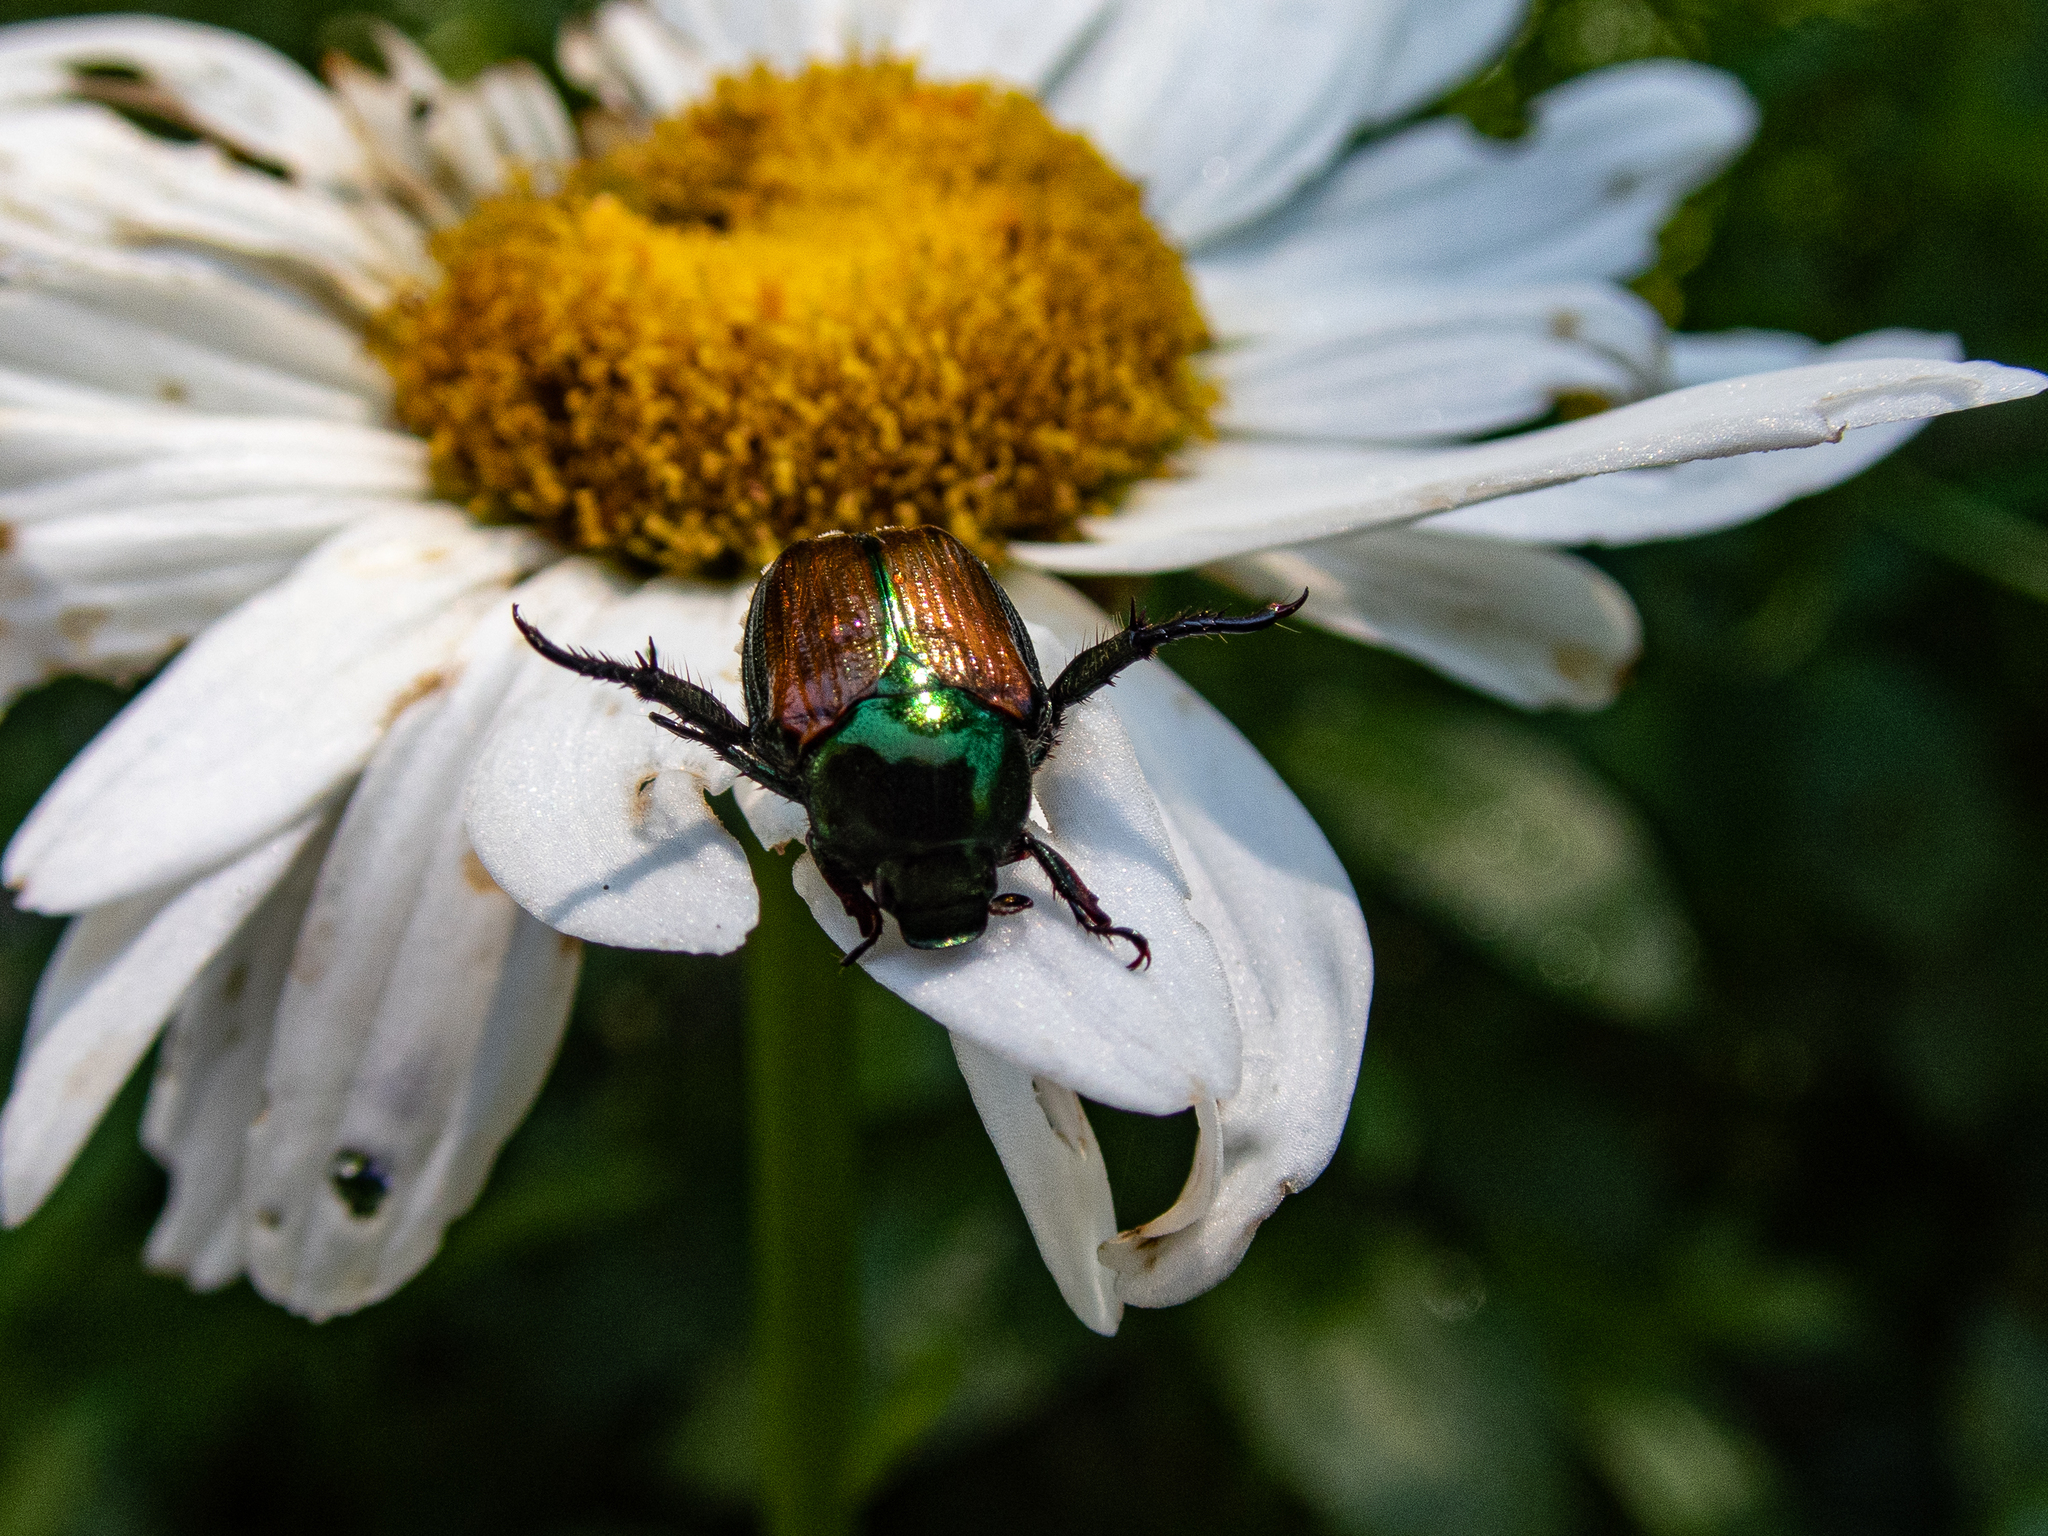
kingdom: Animalia
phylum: Arthropoda
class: Insecta
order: Coleoptera
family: Scarabaeidae
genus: Popillia
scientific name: Popillia japonica
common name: Japanese beetle
